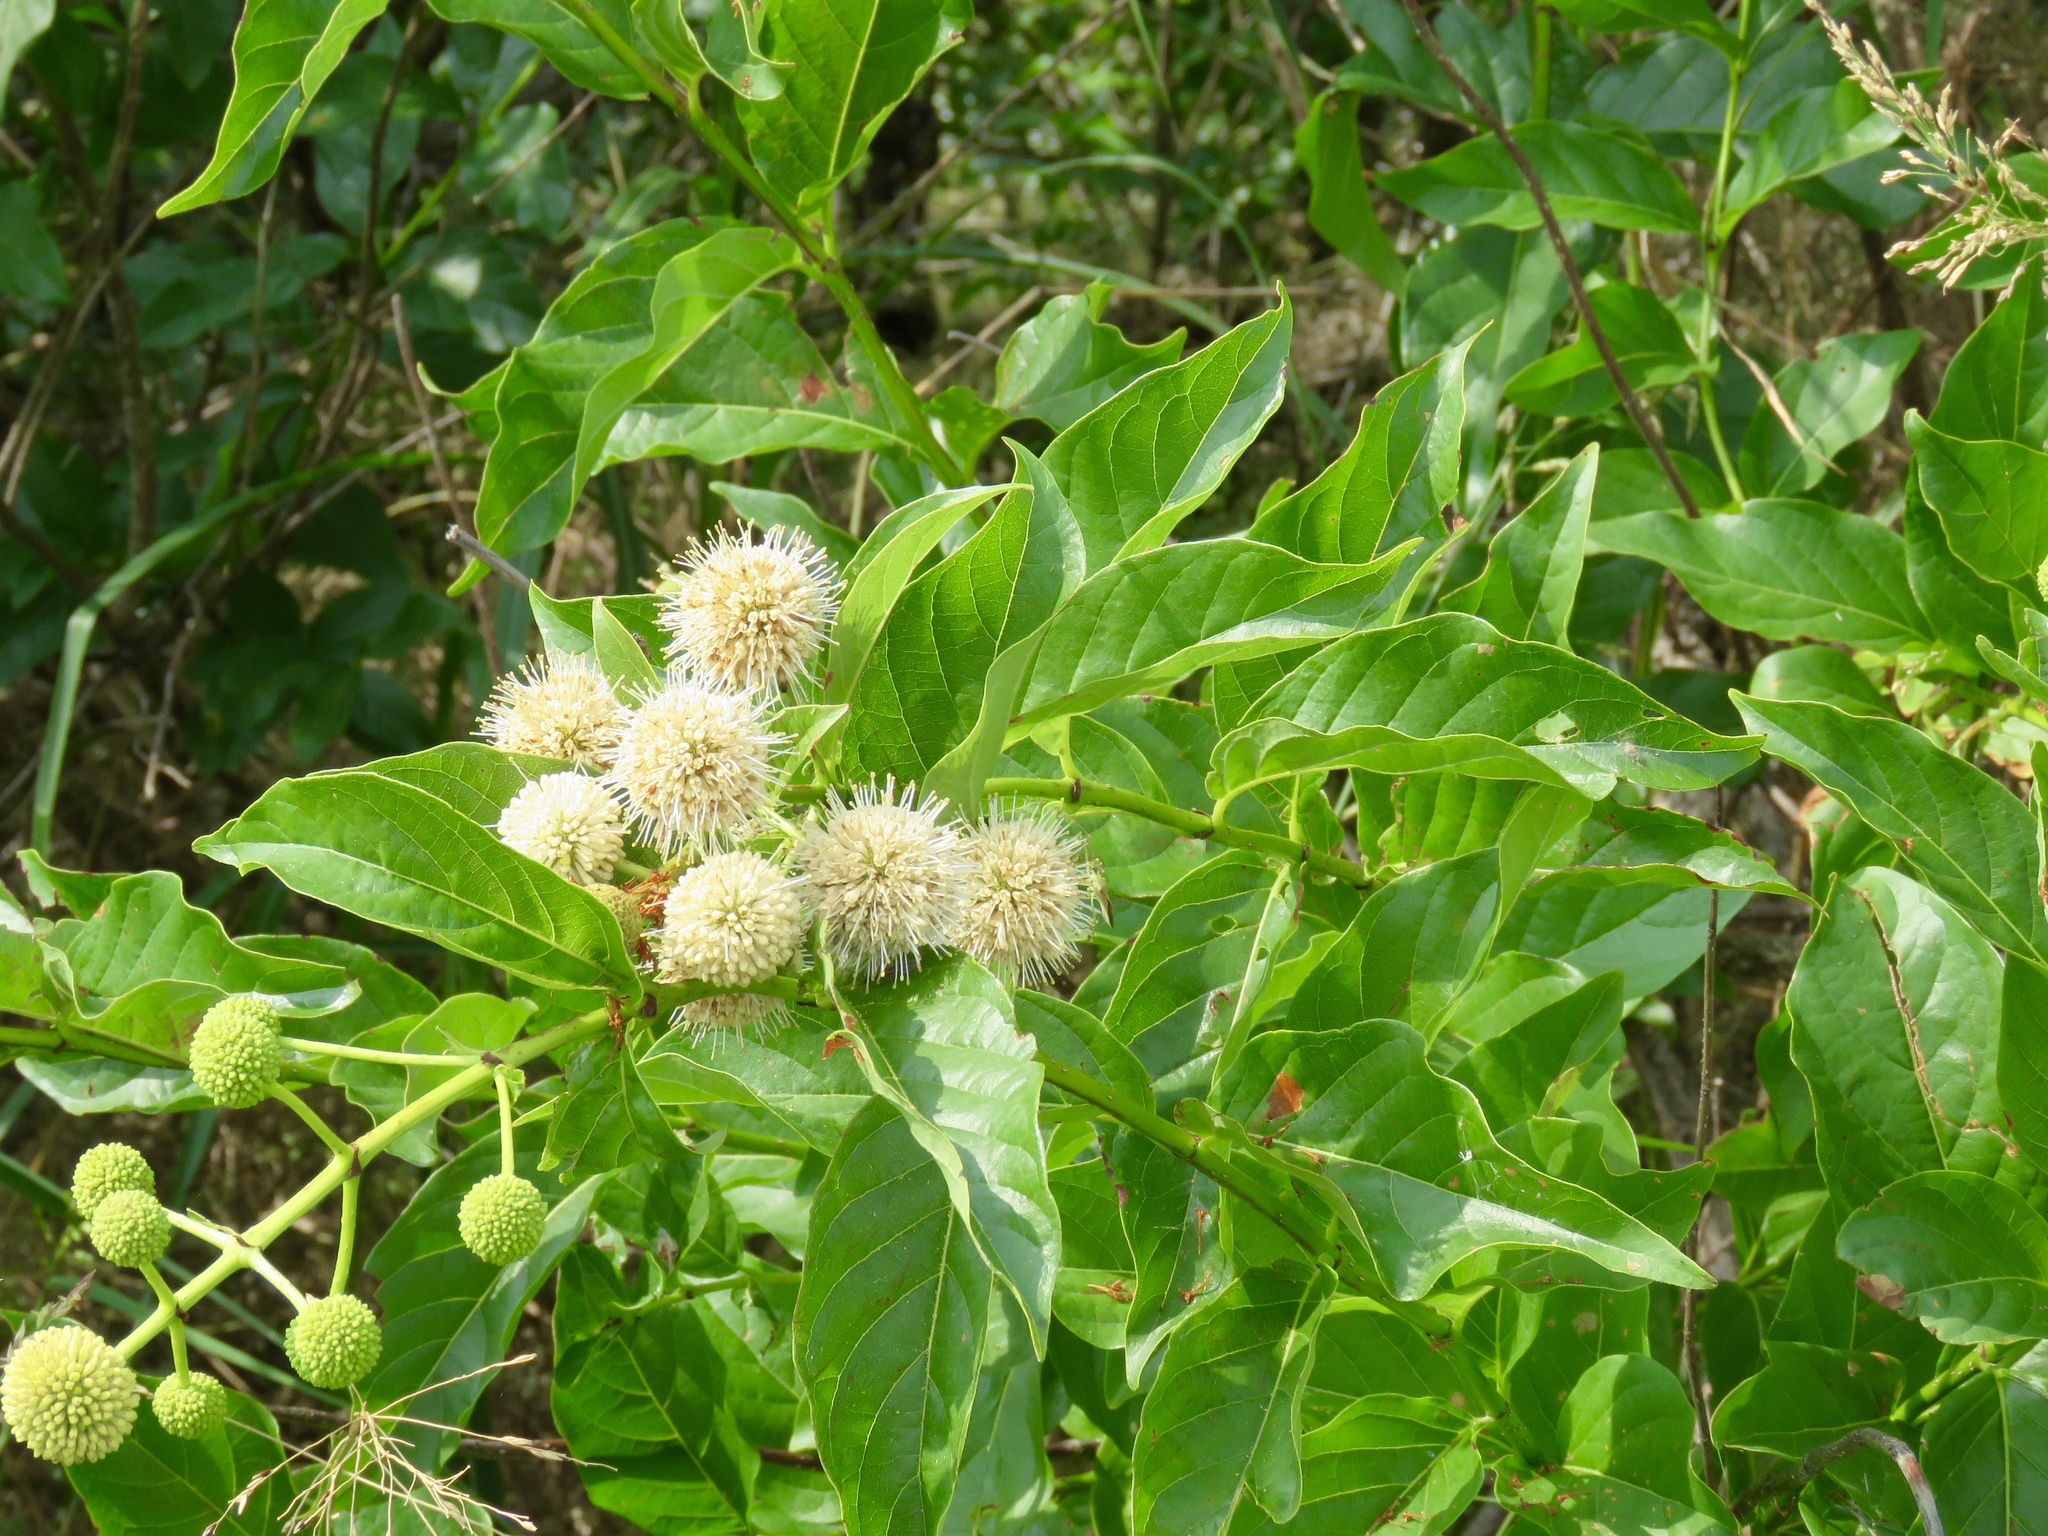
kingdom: Plantae
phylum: Tracheophyta
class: Magnoliopsida
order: Gentianales
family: Rubiaceae
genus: Cephalanthus
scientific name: Cephalanthus occidentalis
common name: Button-willow
